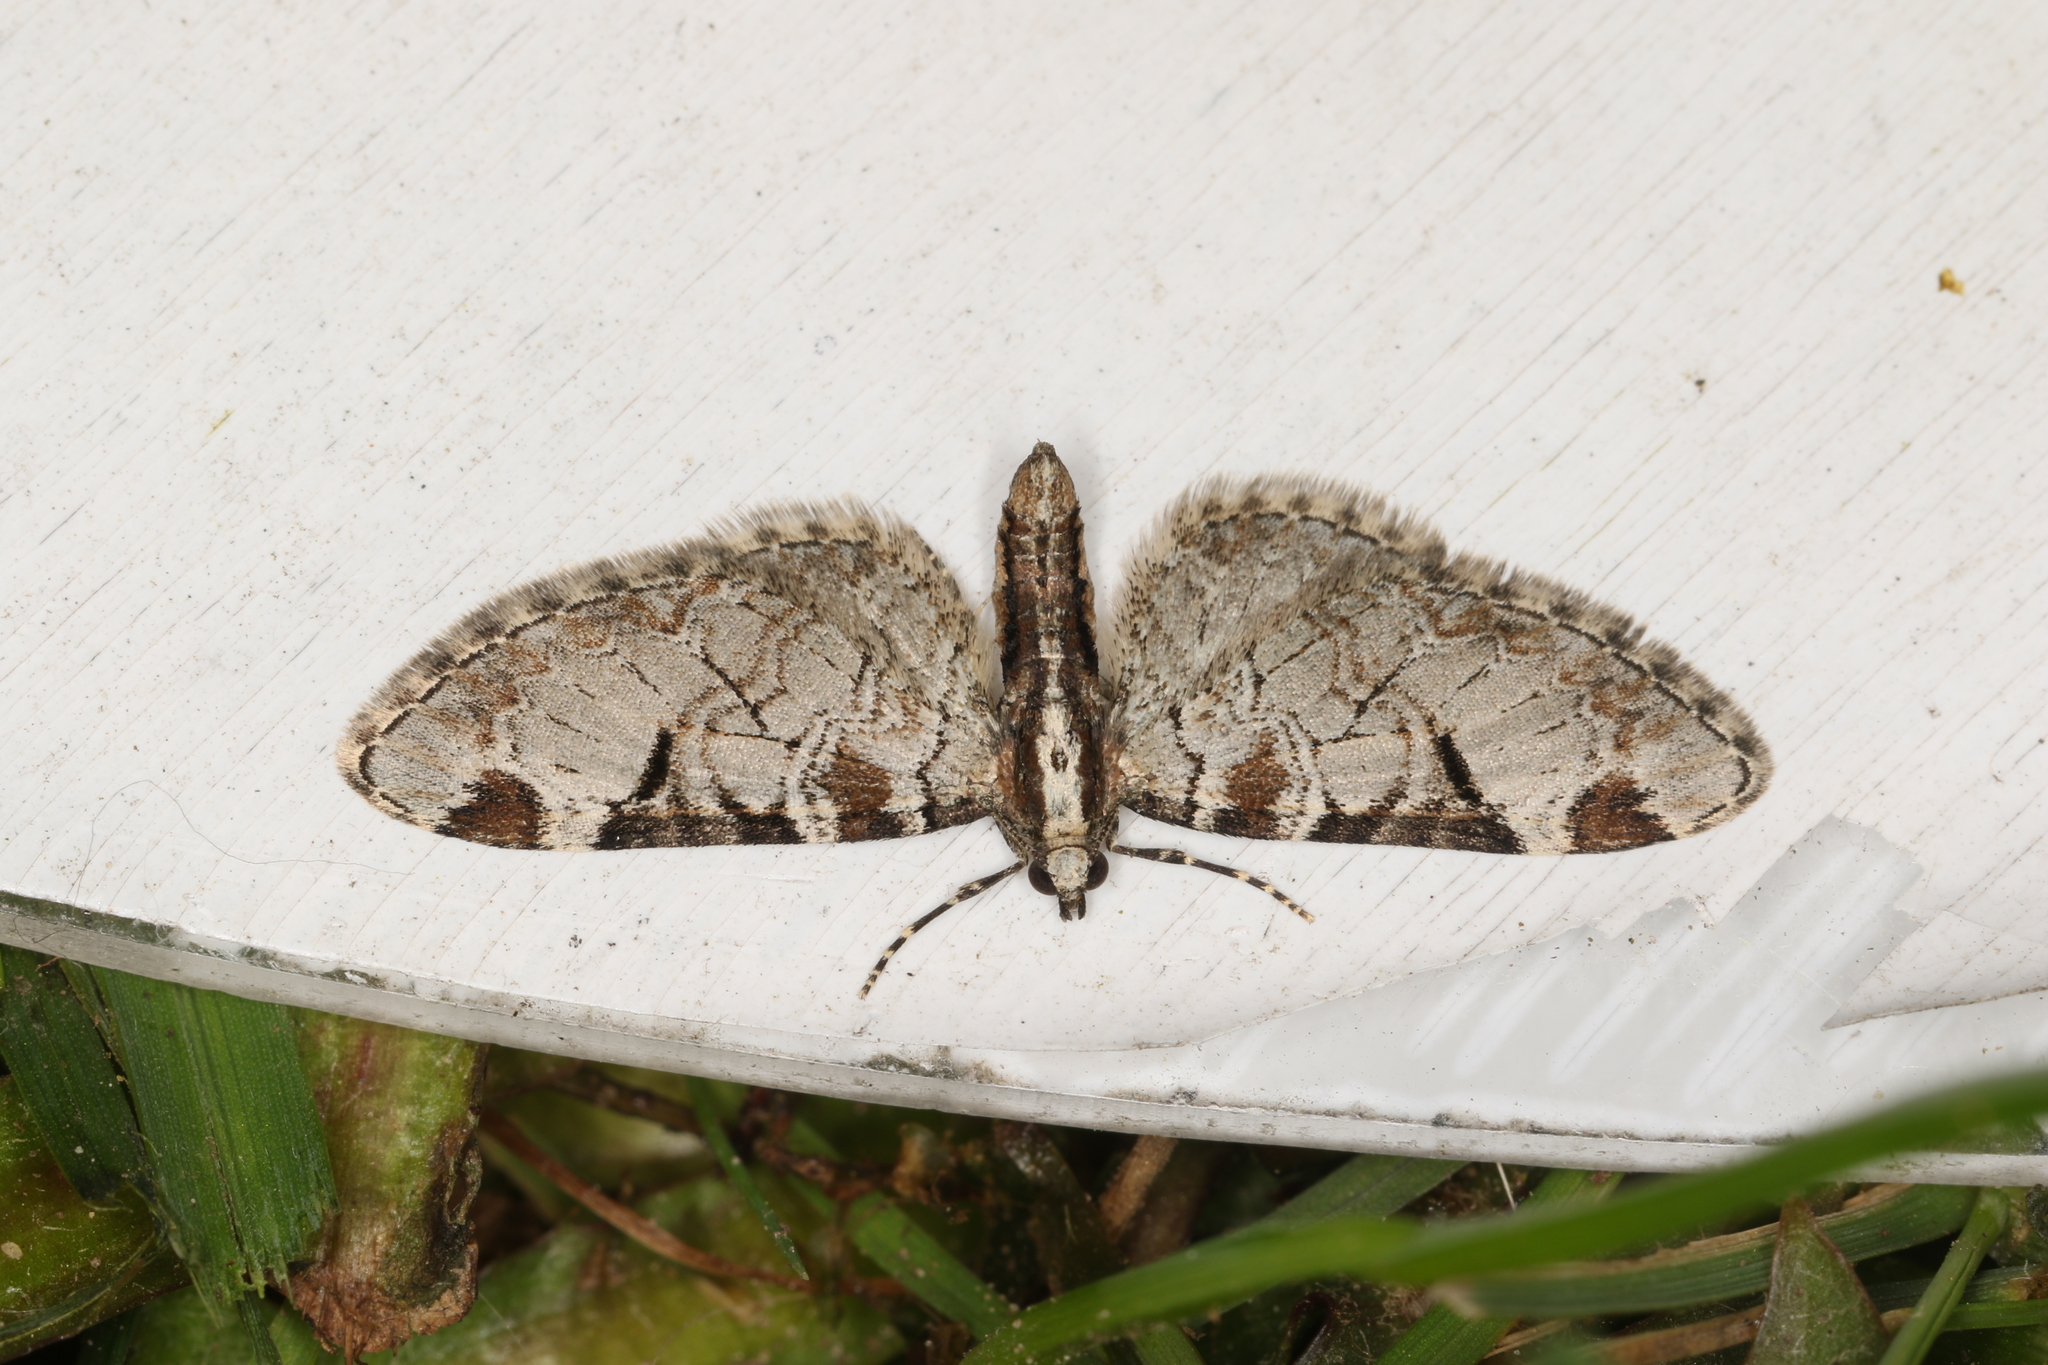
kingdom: Animalia
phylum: Arthropoda
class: Insecta
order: Lepidoptera
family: Geometridae
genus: Eupithecia
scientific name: Eupithecia insigniata
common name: Pinion-spotted pug
